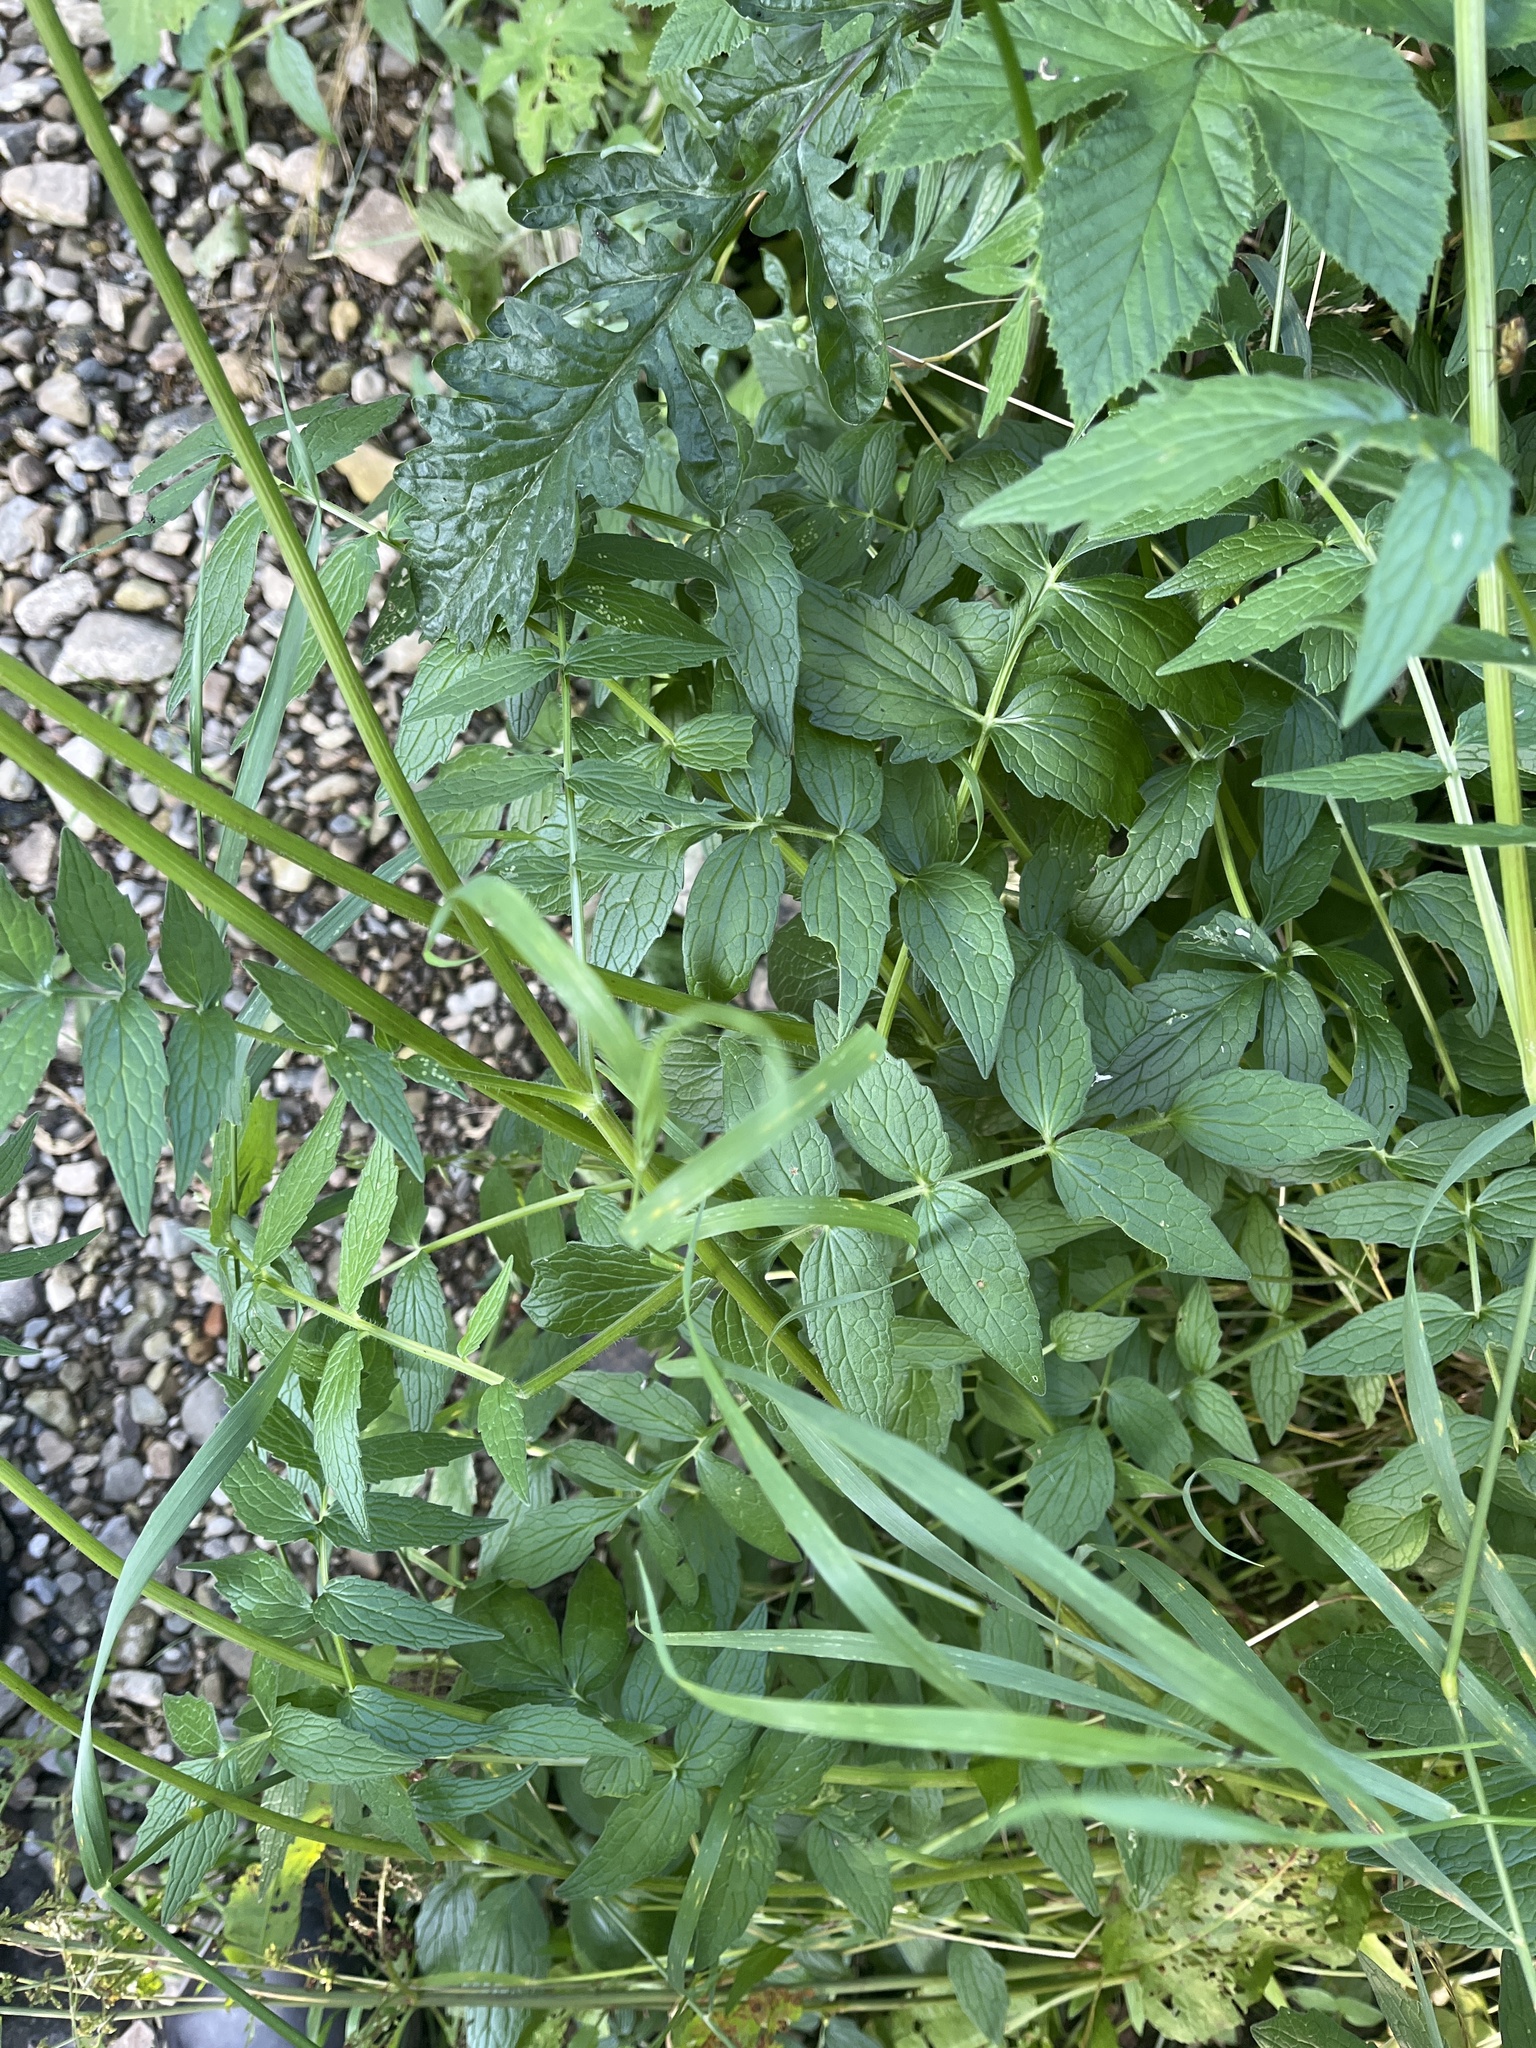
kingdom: Plantae
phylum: Tracheophyta
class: Magnoliopsida
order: Dipsacales
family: Caprifoliaceae
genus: Valeriana
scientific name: Valeriana officinalis
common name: Common valerian
